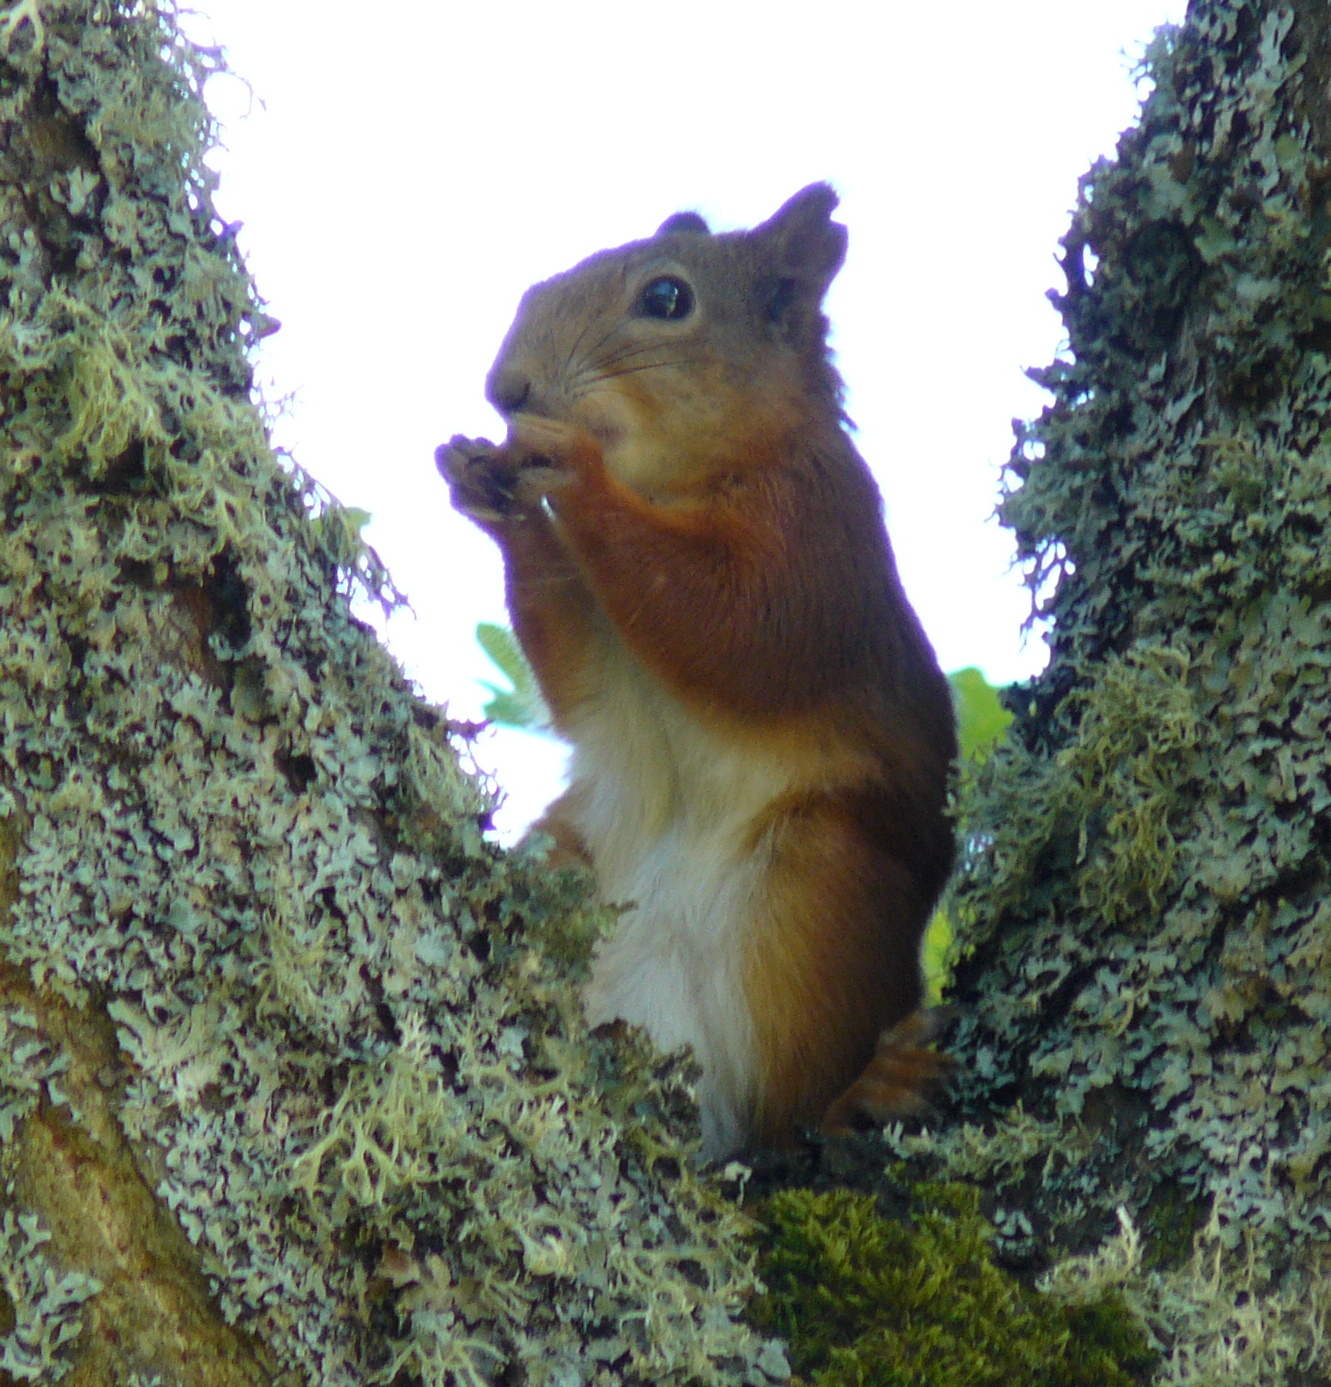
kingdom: Animalia
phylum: Chordata
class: Mammalia
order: Rodentia
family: Sciuridae
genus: Sciurus
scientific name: Sciurus vulgaris
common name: Eurasian red squirrel
